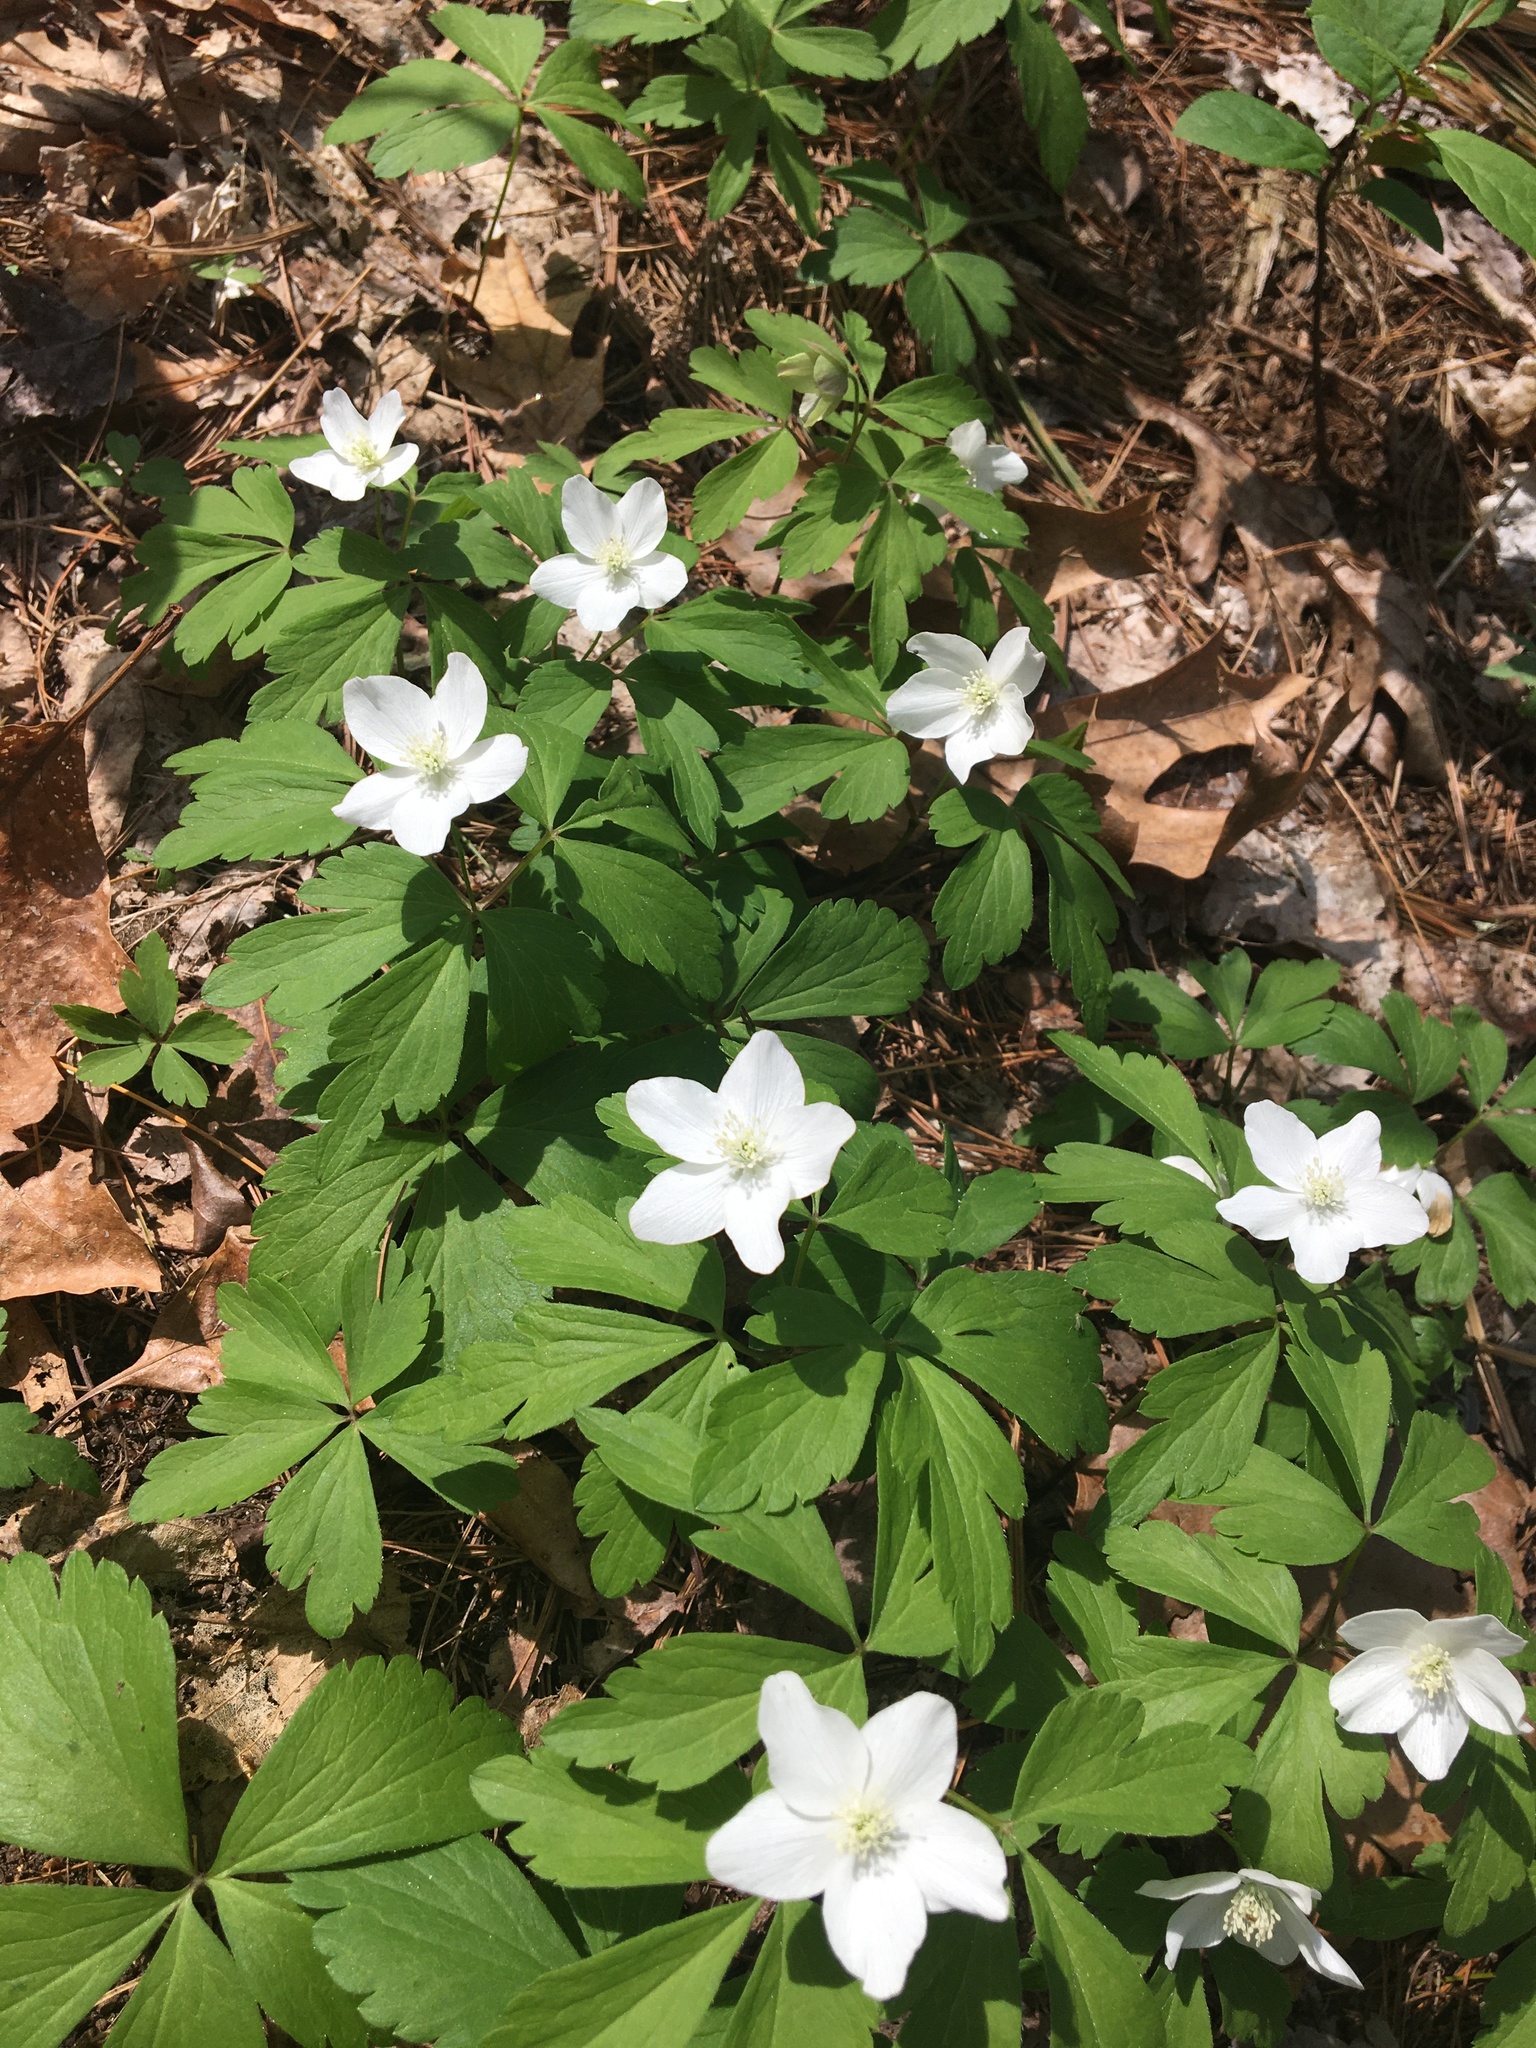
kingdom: Plantae
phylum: Tracheophyta
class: Magnoliopsida
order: Ranunculales
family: Ranunculaceae
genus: Anemone
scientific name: Anemone quinquefolia
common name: Wood anemone
